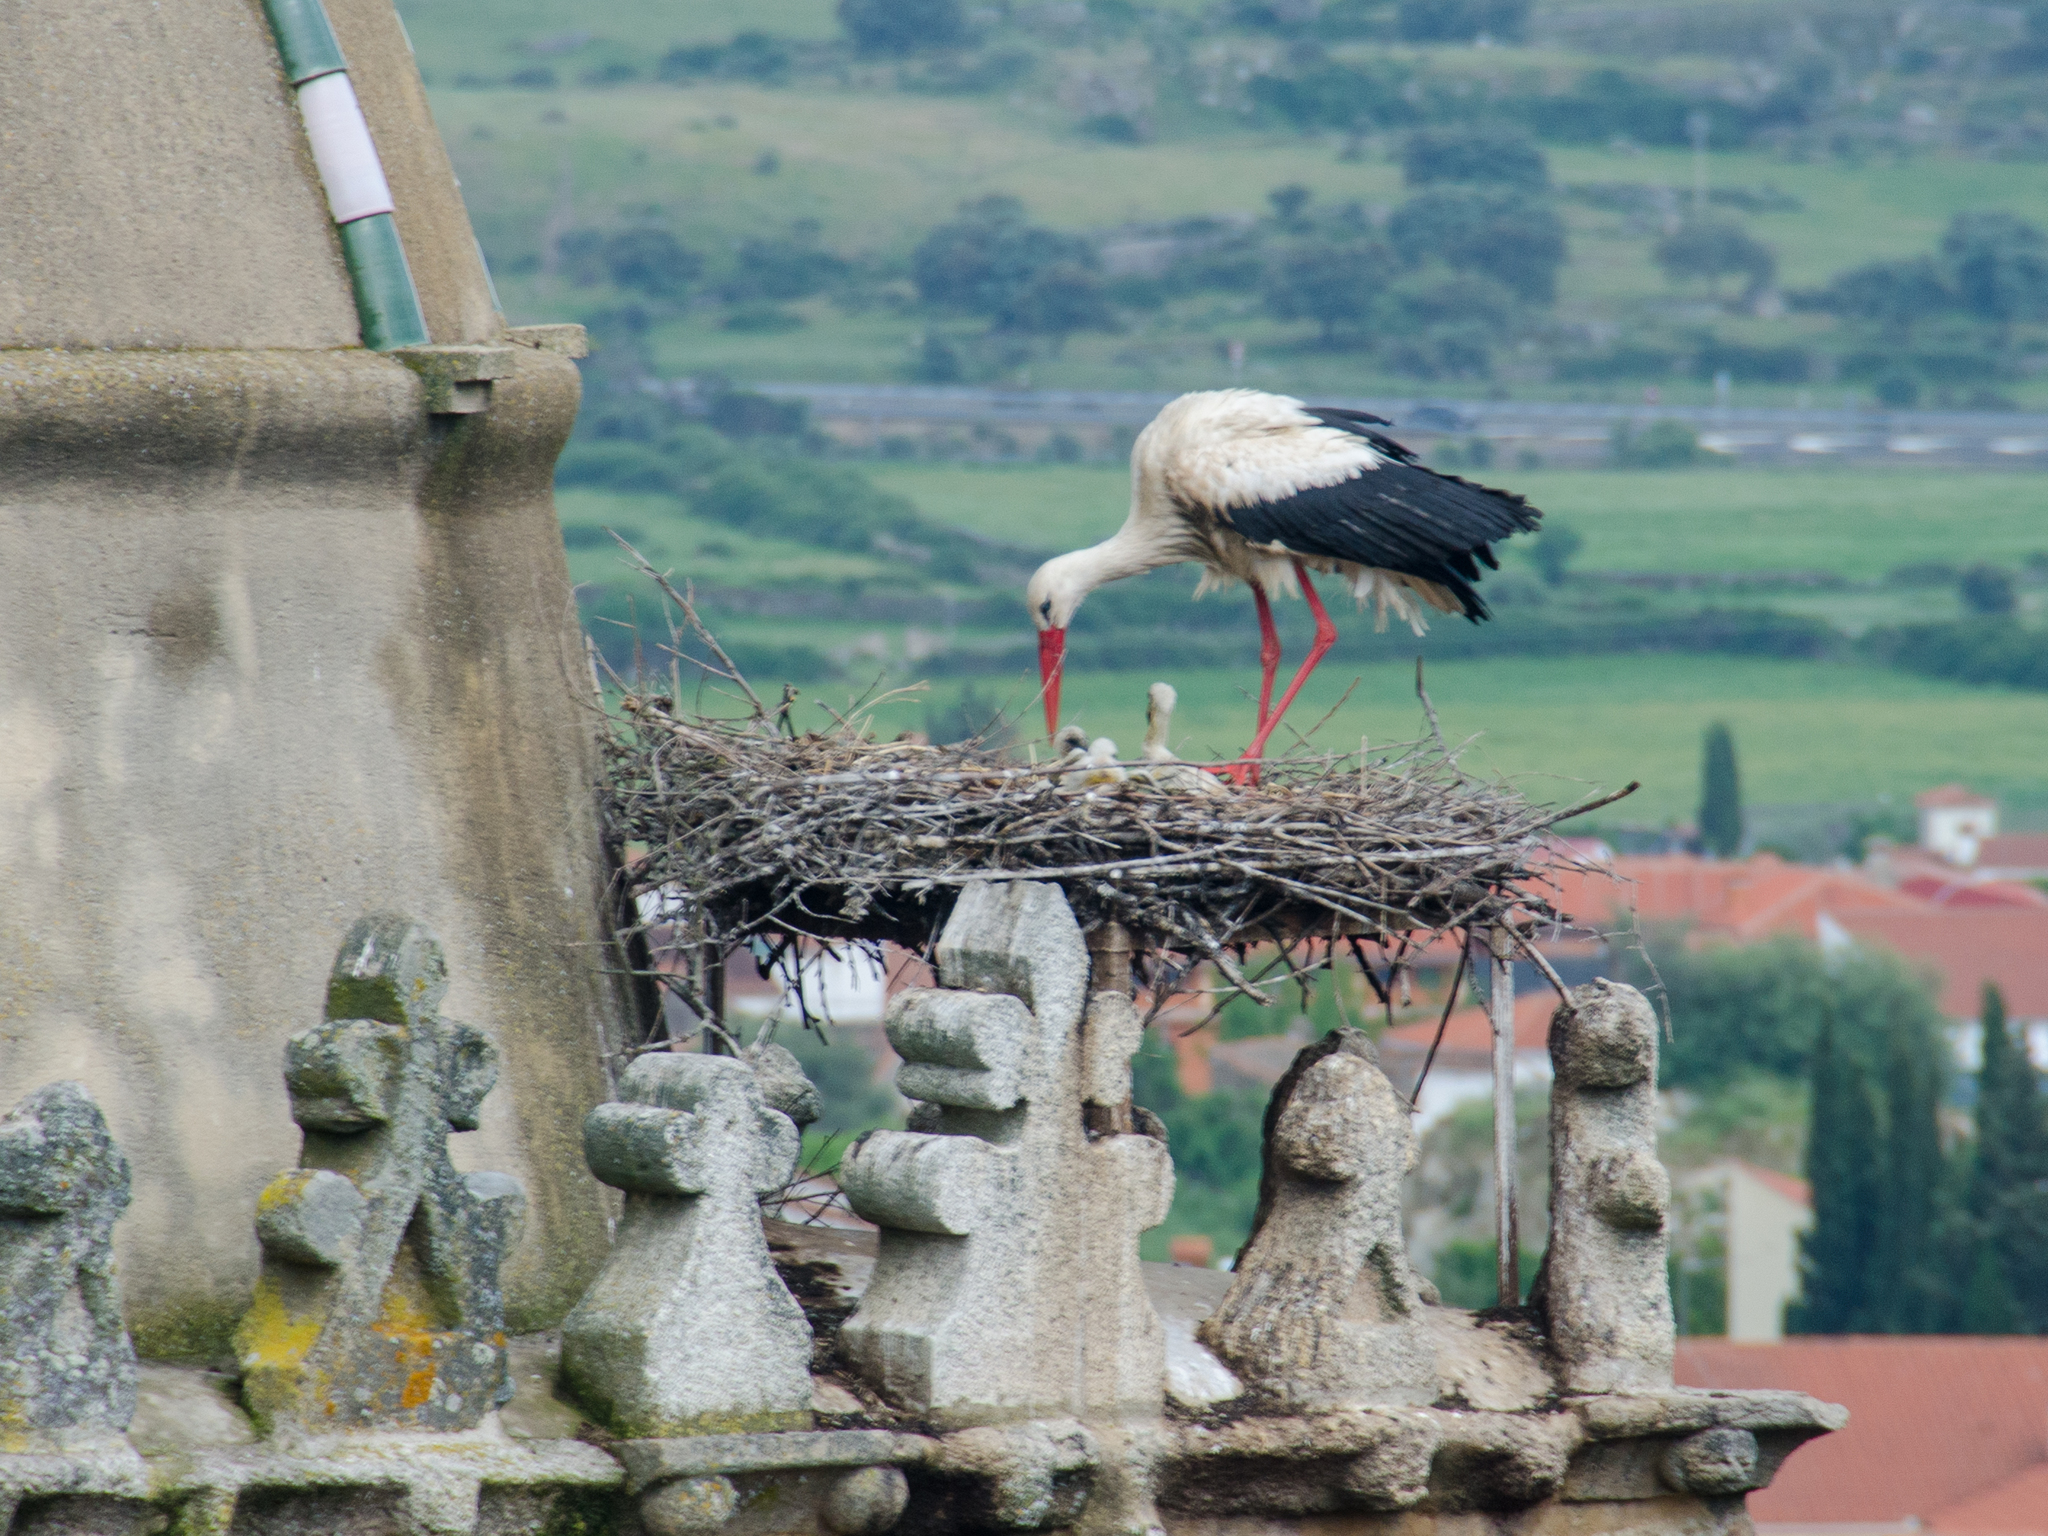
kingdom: Animalia
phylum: Chordata
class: Aves
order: Ciconiiformes
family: Ciconiidae
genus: Ciconia
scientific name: Ciconia ciconia
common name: White stork
